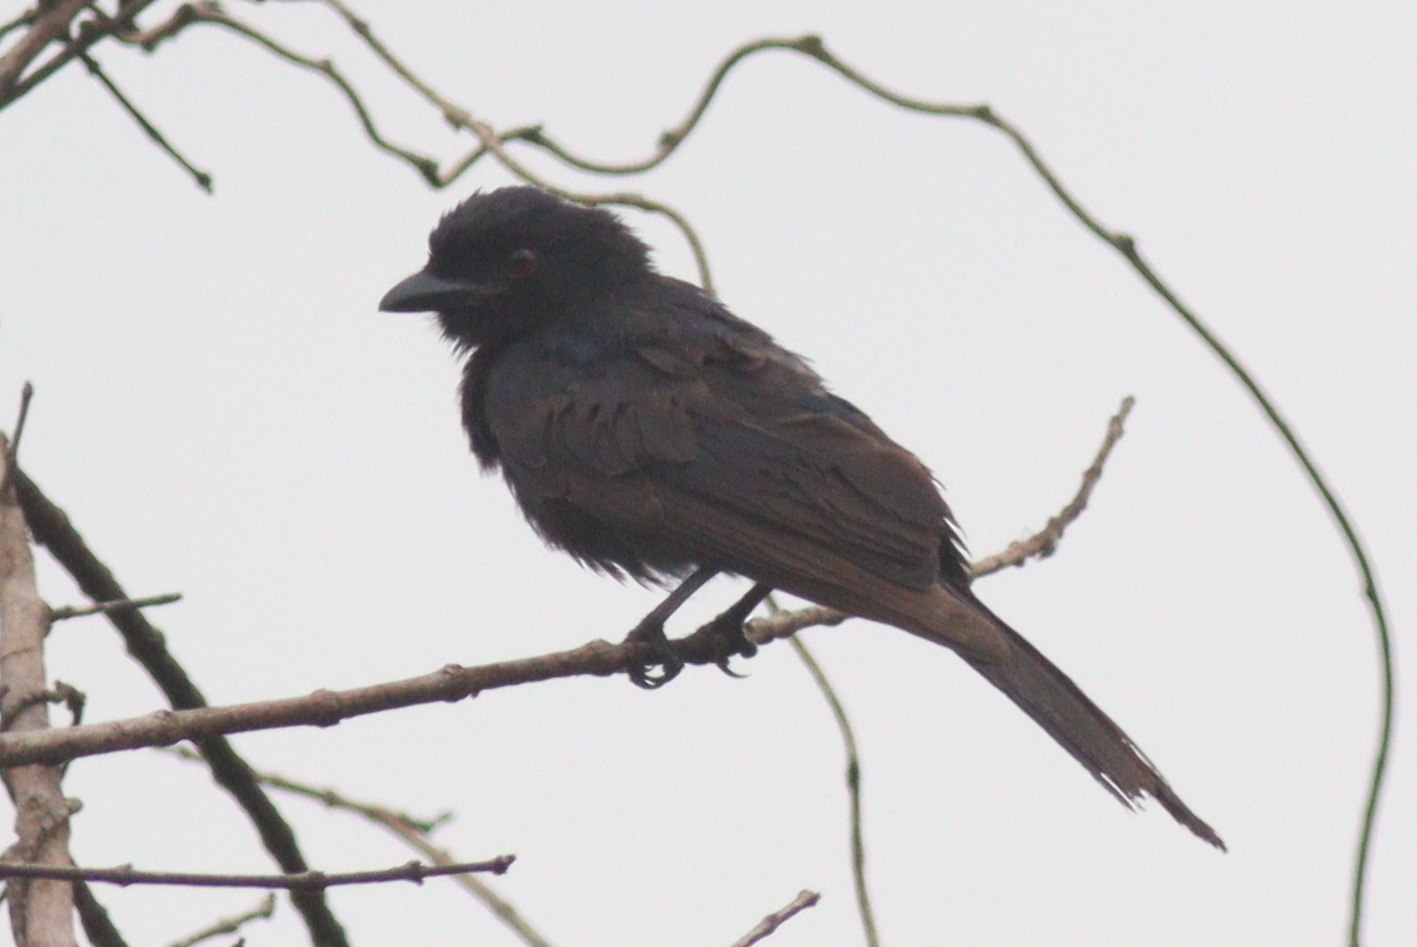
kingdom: Animalia
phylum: Chordata
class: Aves
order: Passeriformes
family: Dicruridae
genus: Dicrurus
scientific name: Dicrurus adsimilis
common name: Fork-tailed drongo
